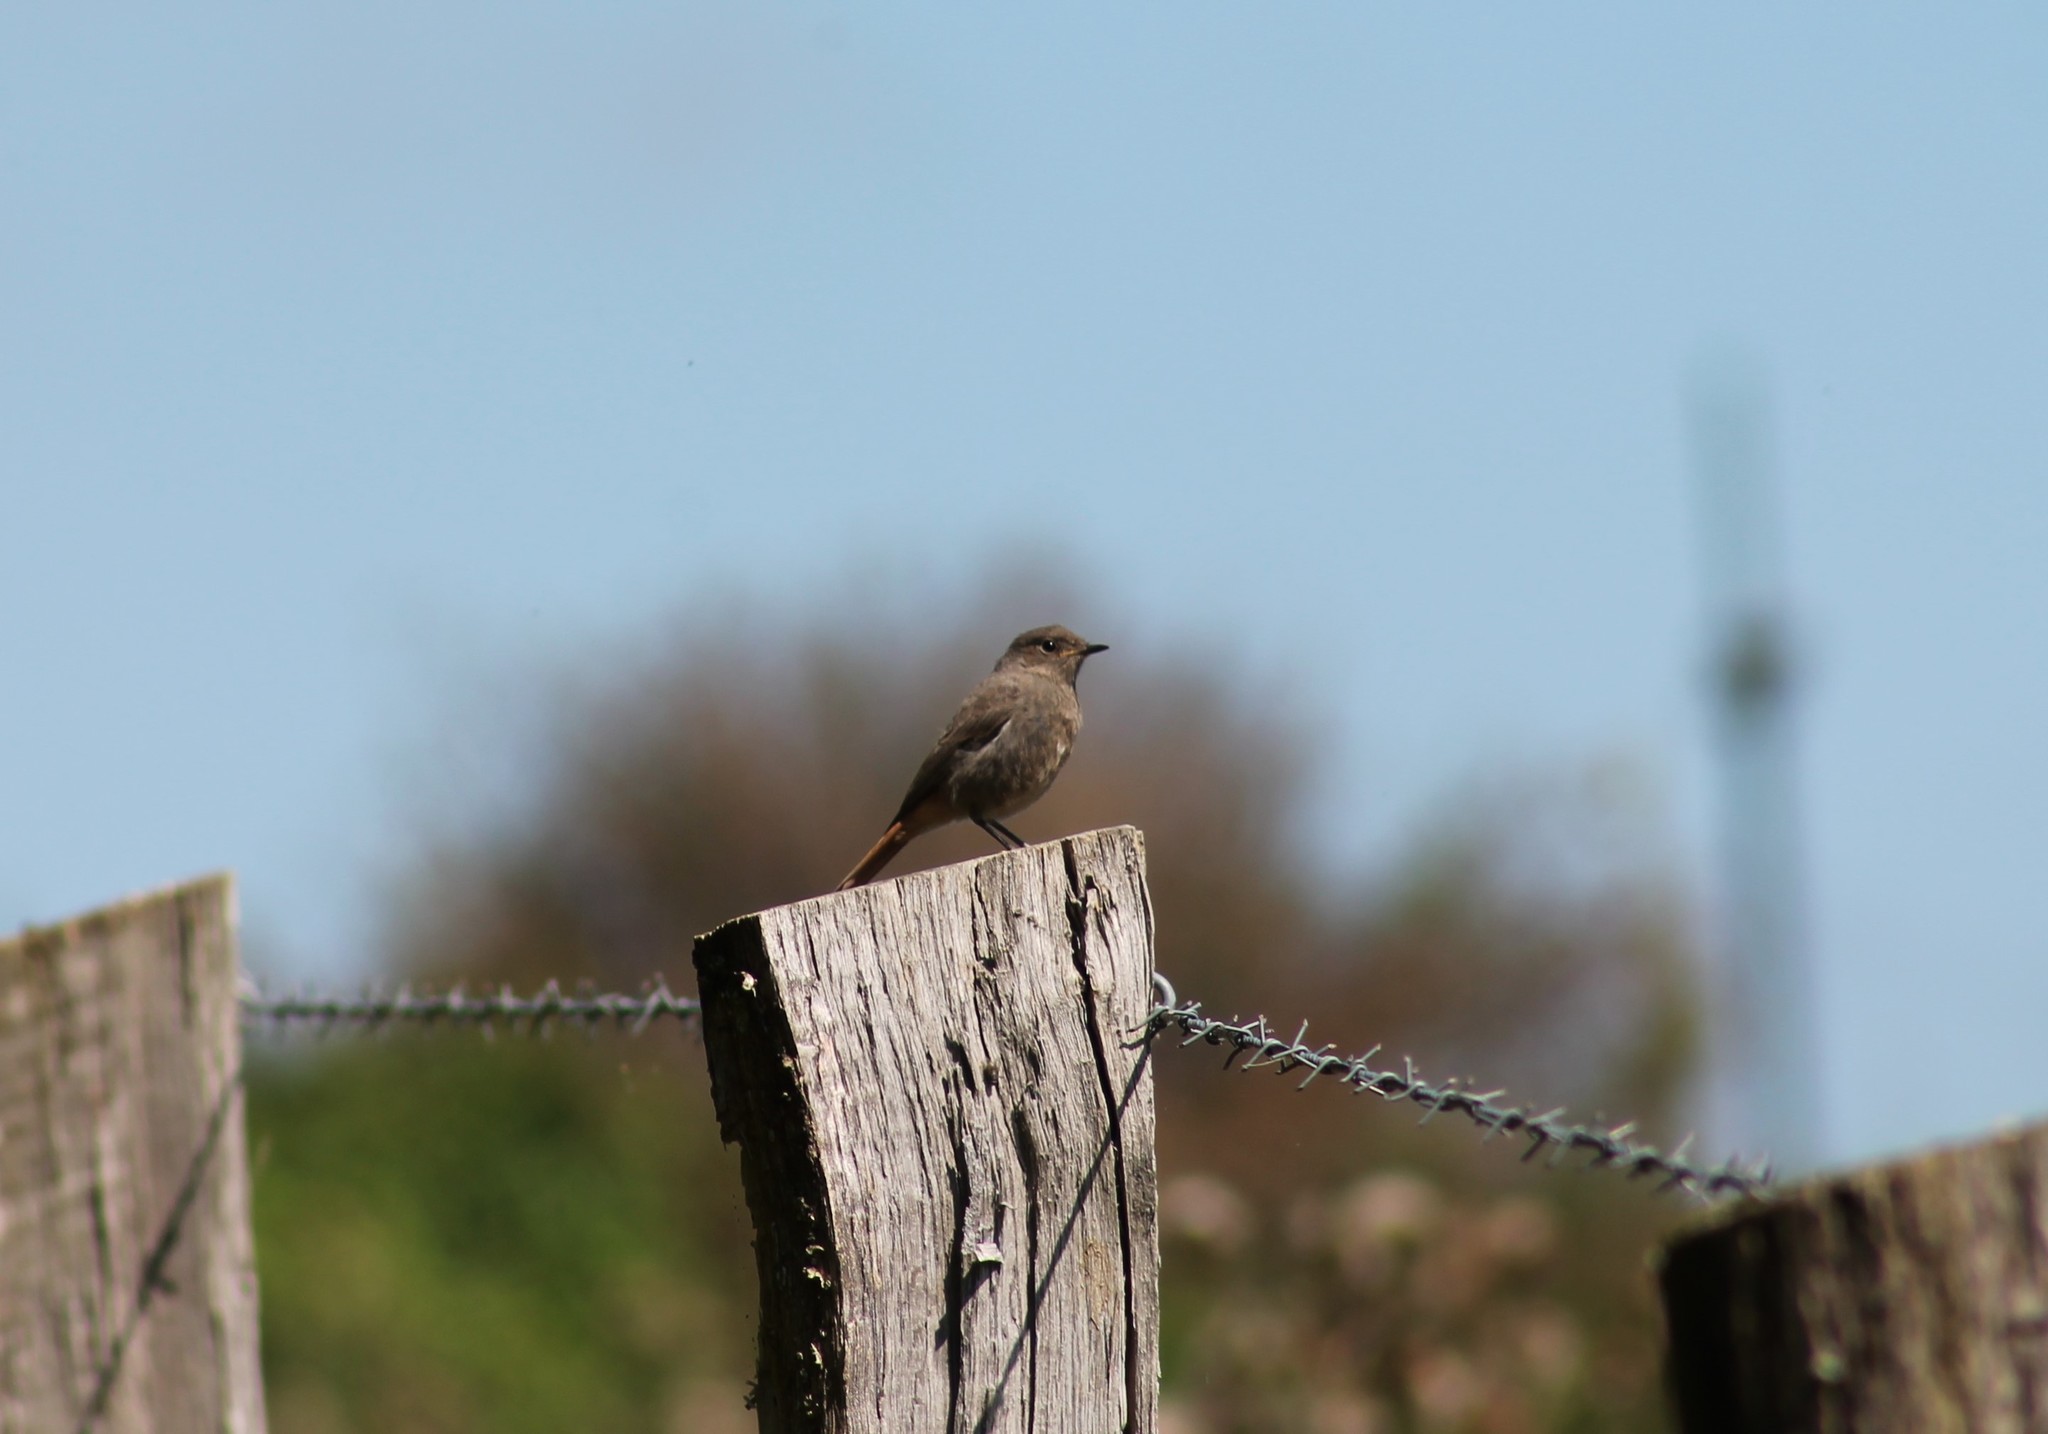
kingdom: Animalia
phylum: Chordata
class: Aves
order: Passeriformes
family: Muscicapidae
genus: Phoenicurus
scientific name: Phoenicurus ochruros
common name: Black redstart
